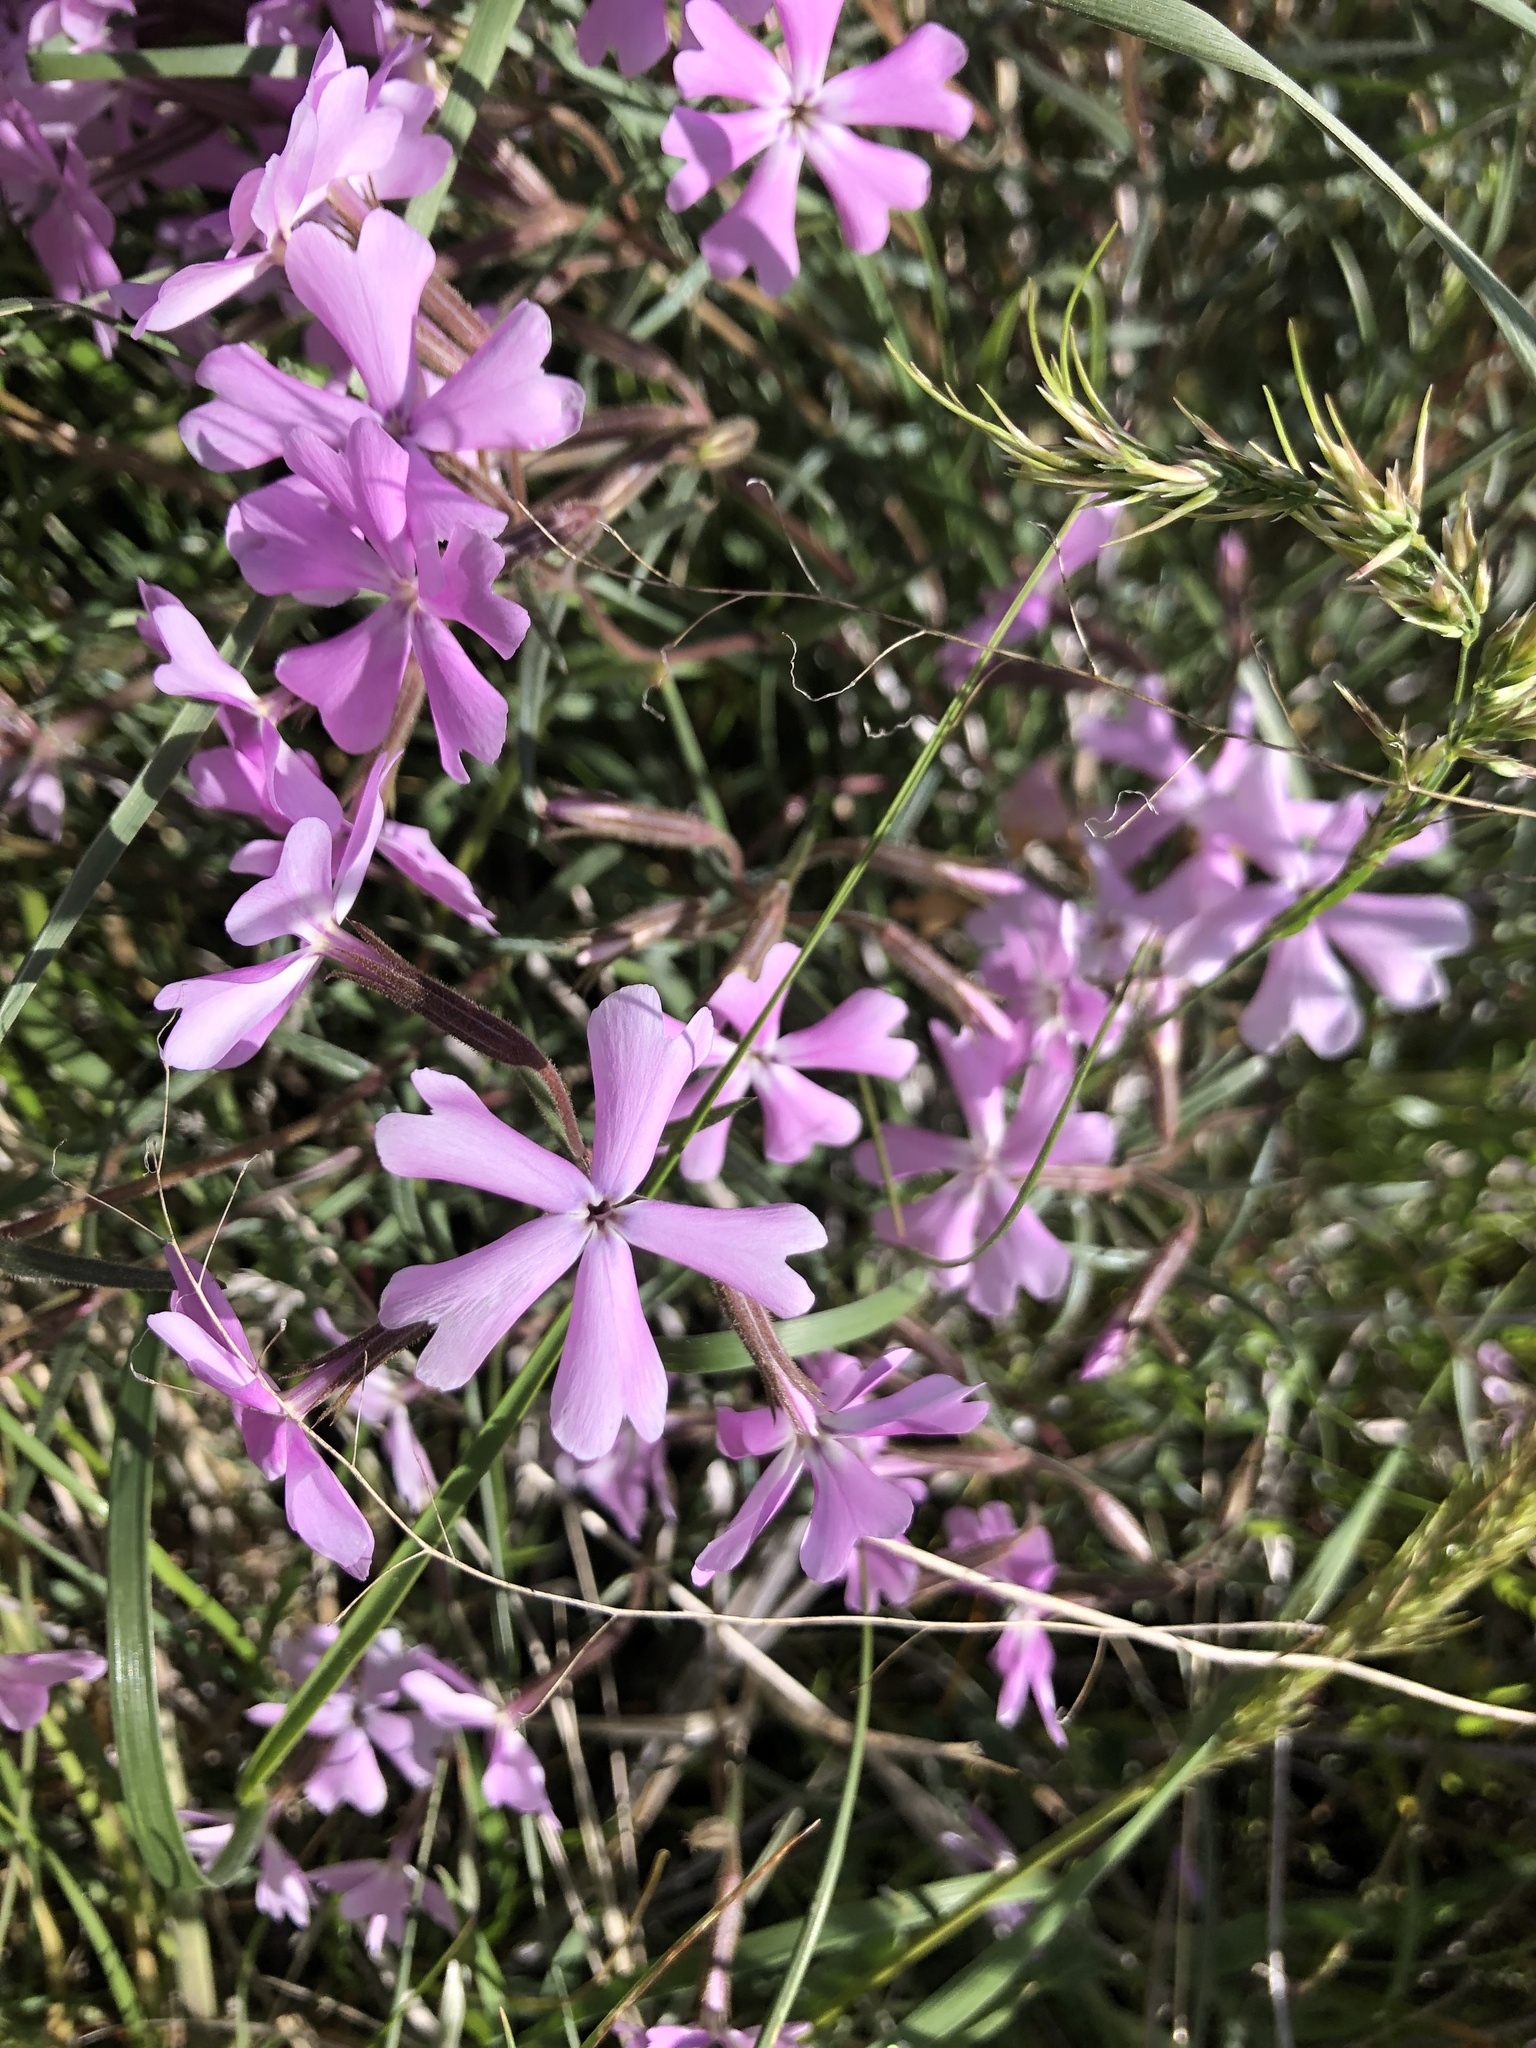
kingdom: Plantae
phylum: Tracheophyta
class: Magnoliopsida
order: Ericales
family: Polemoniaceae
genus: Phlox
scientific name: Phlox speciosa
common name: Bush phlox
